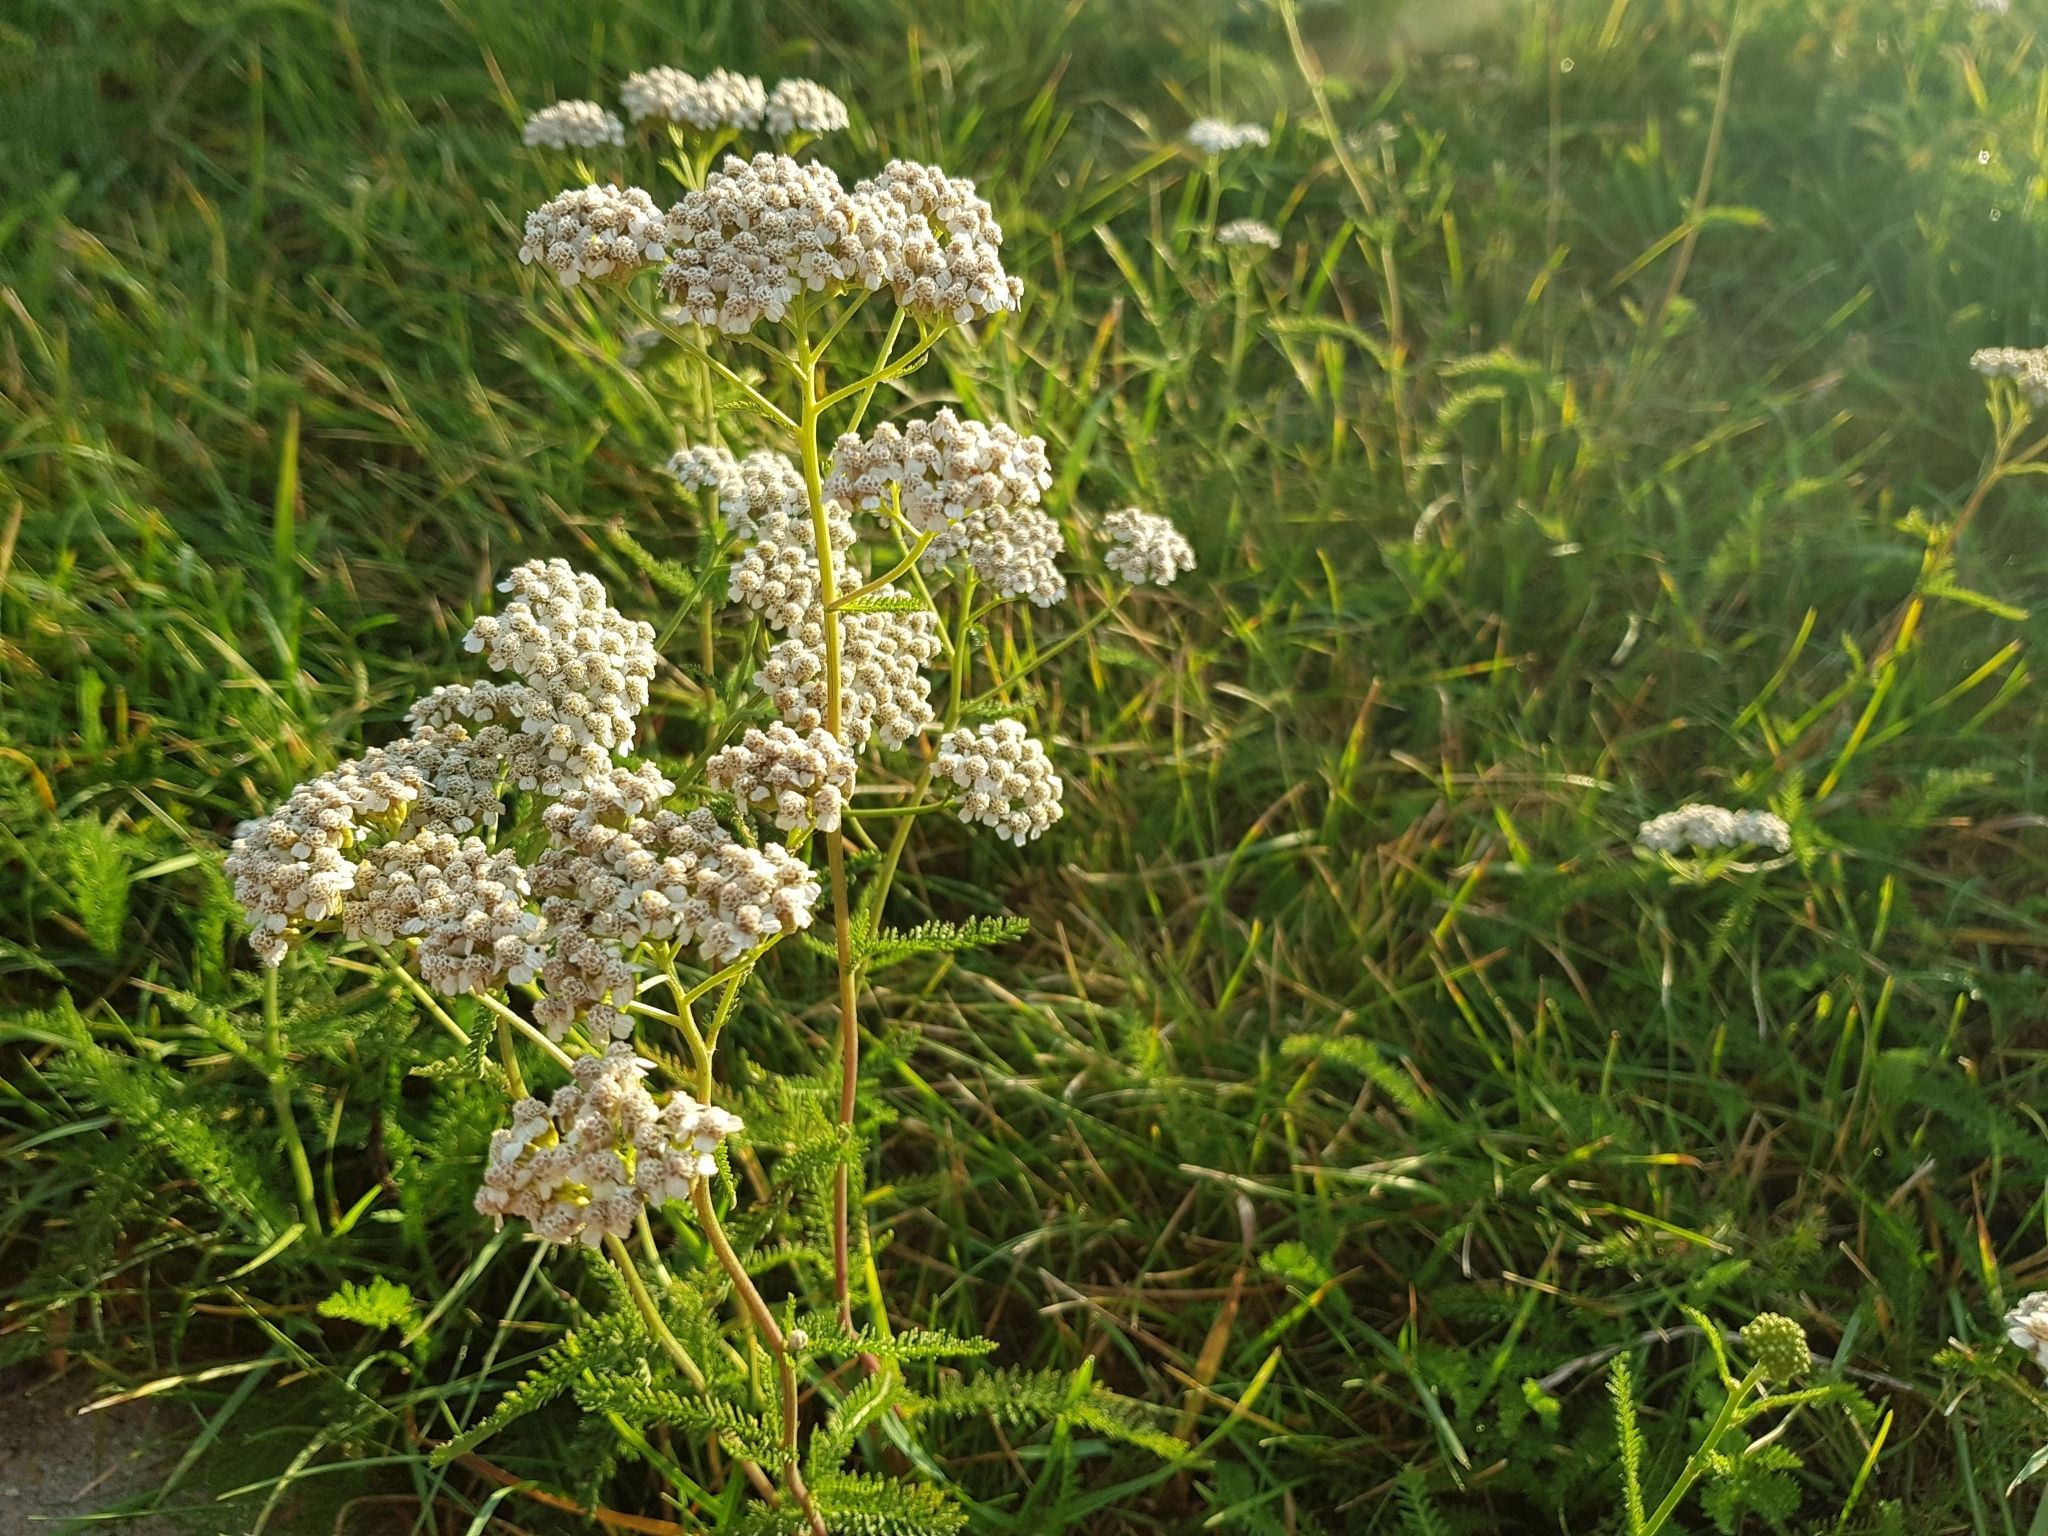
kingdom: Plantae
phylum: Tracheophyta
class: Magnoliopsida
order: Asterales
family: Asteraceae
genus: Achillea
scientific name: Achillea millefolium
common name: Yarrow
